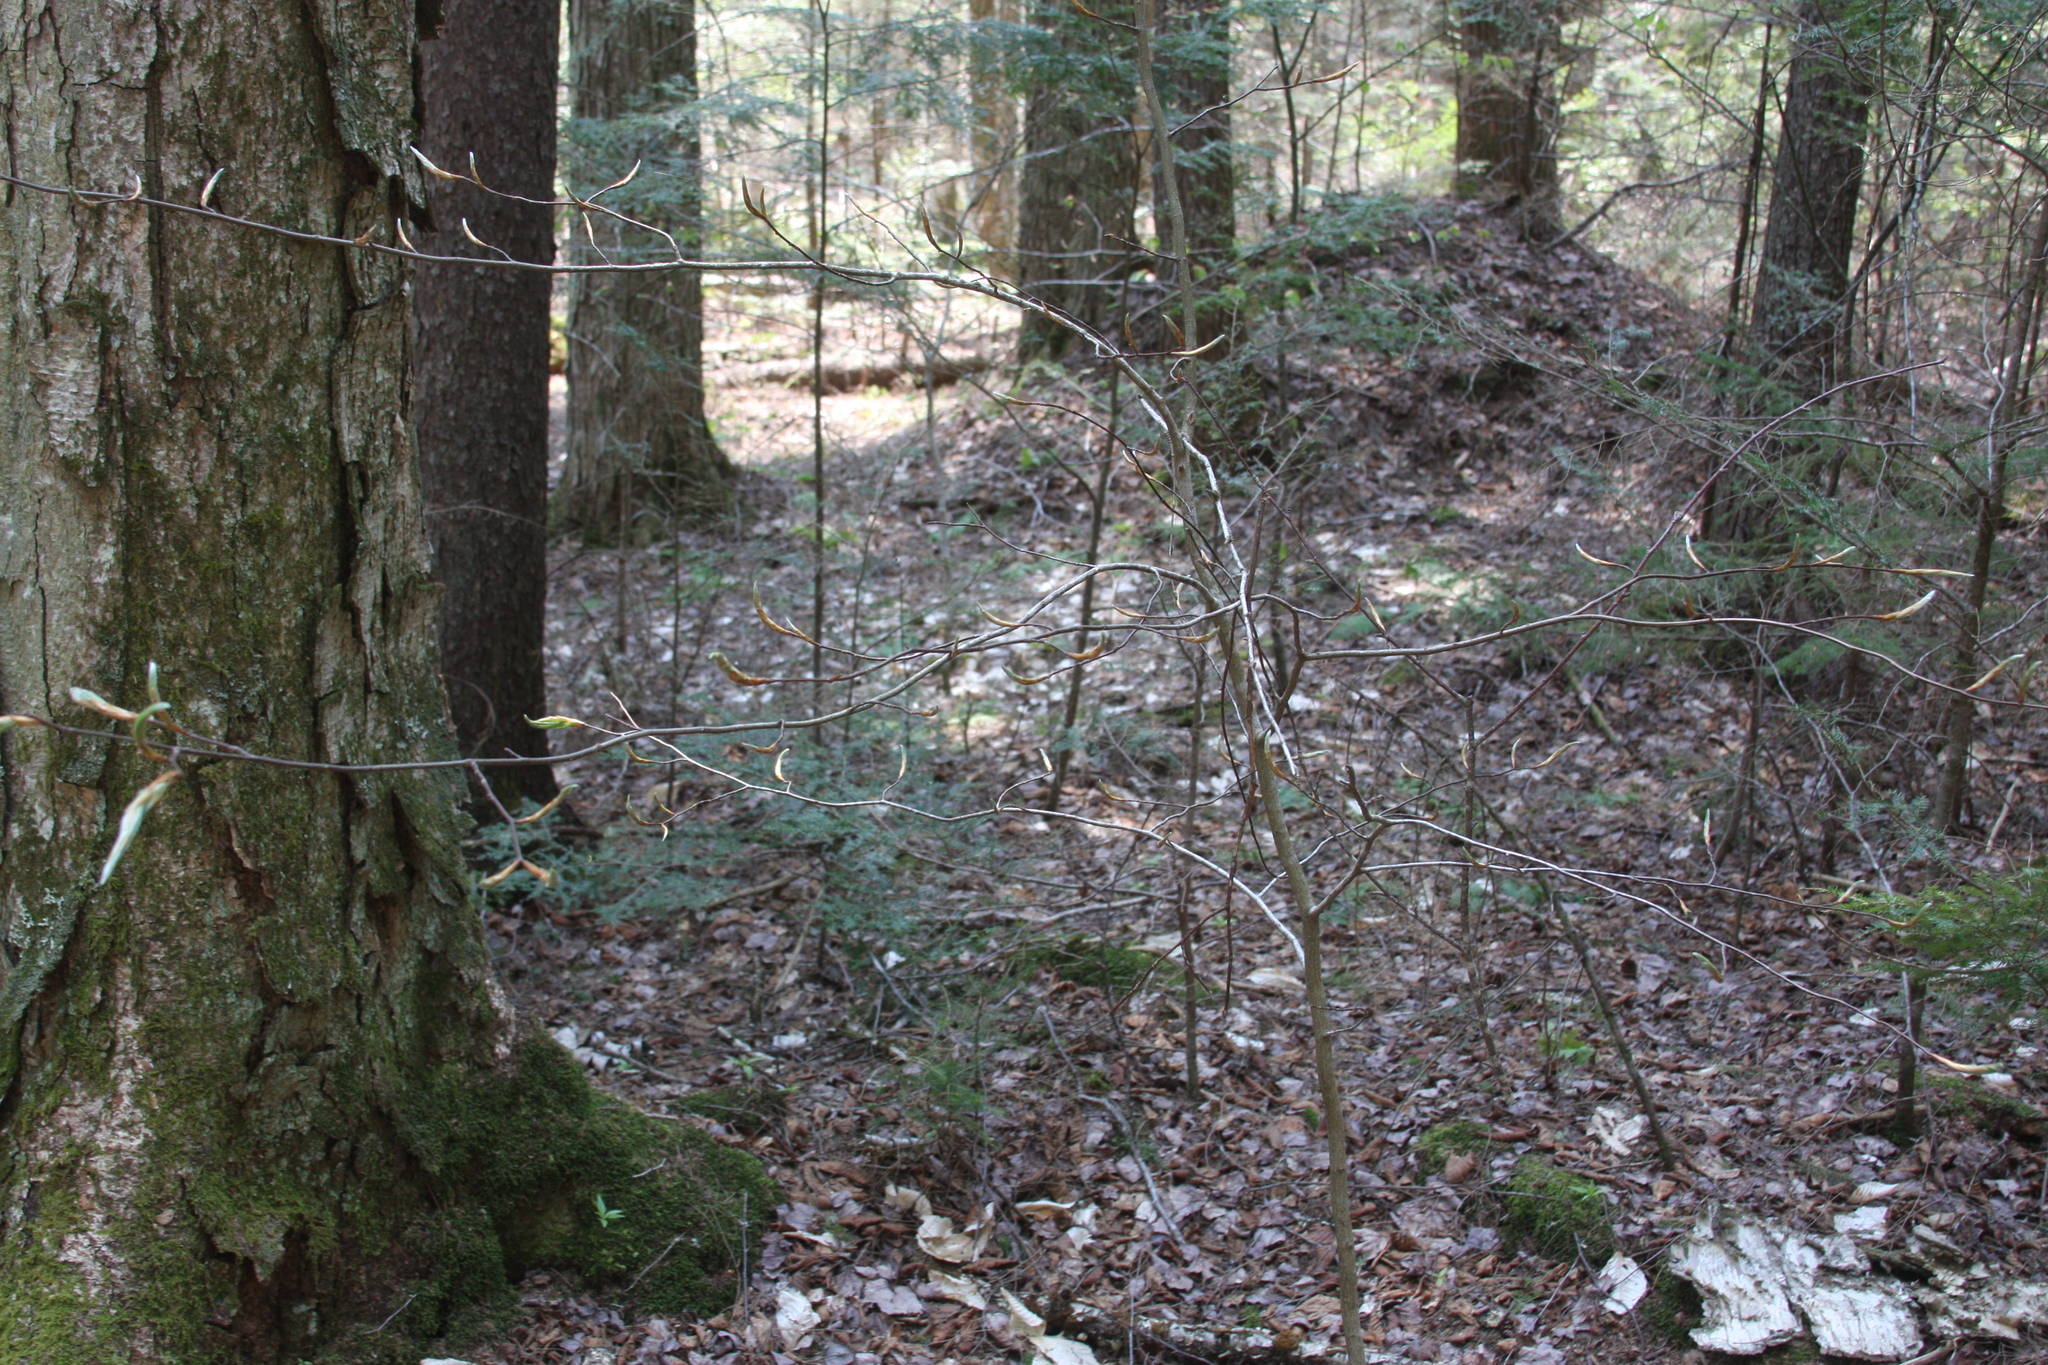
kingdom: Plantae
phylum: Tracheophyta
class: Magnoliopsida
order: Fagales
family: Fagaceae
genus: Fagus
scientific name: Fagus grandifolia
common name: American beech
